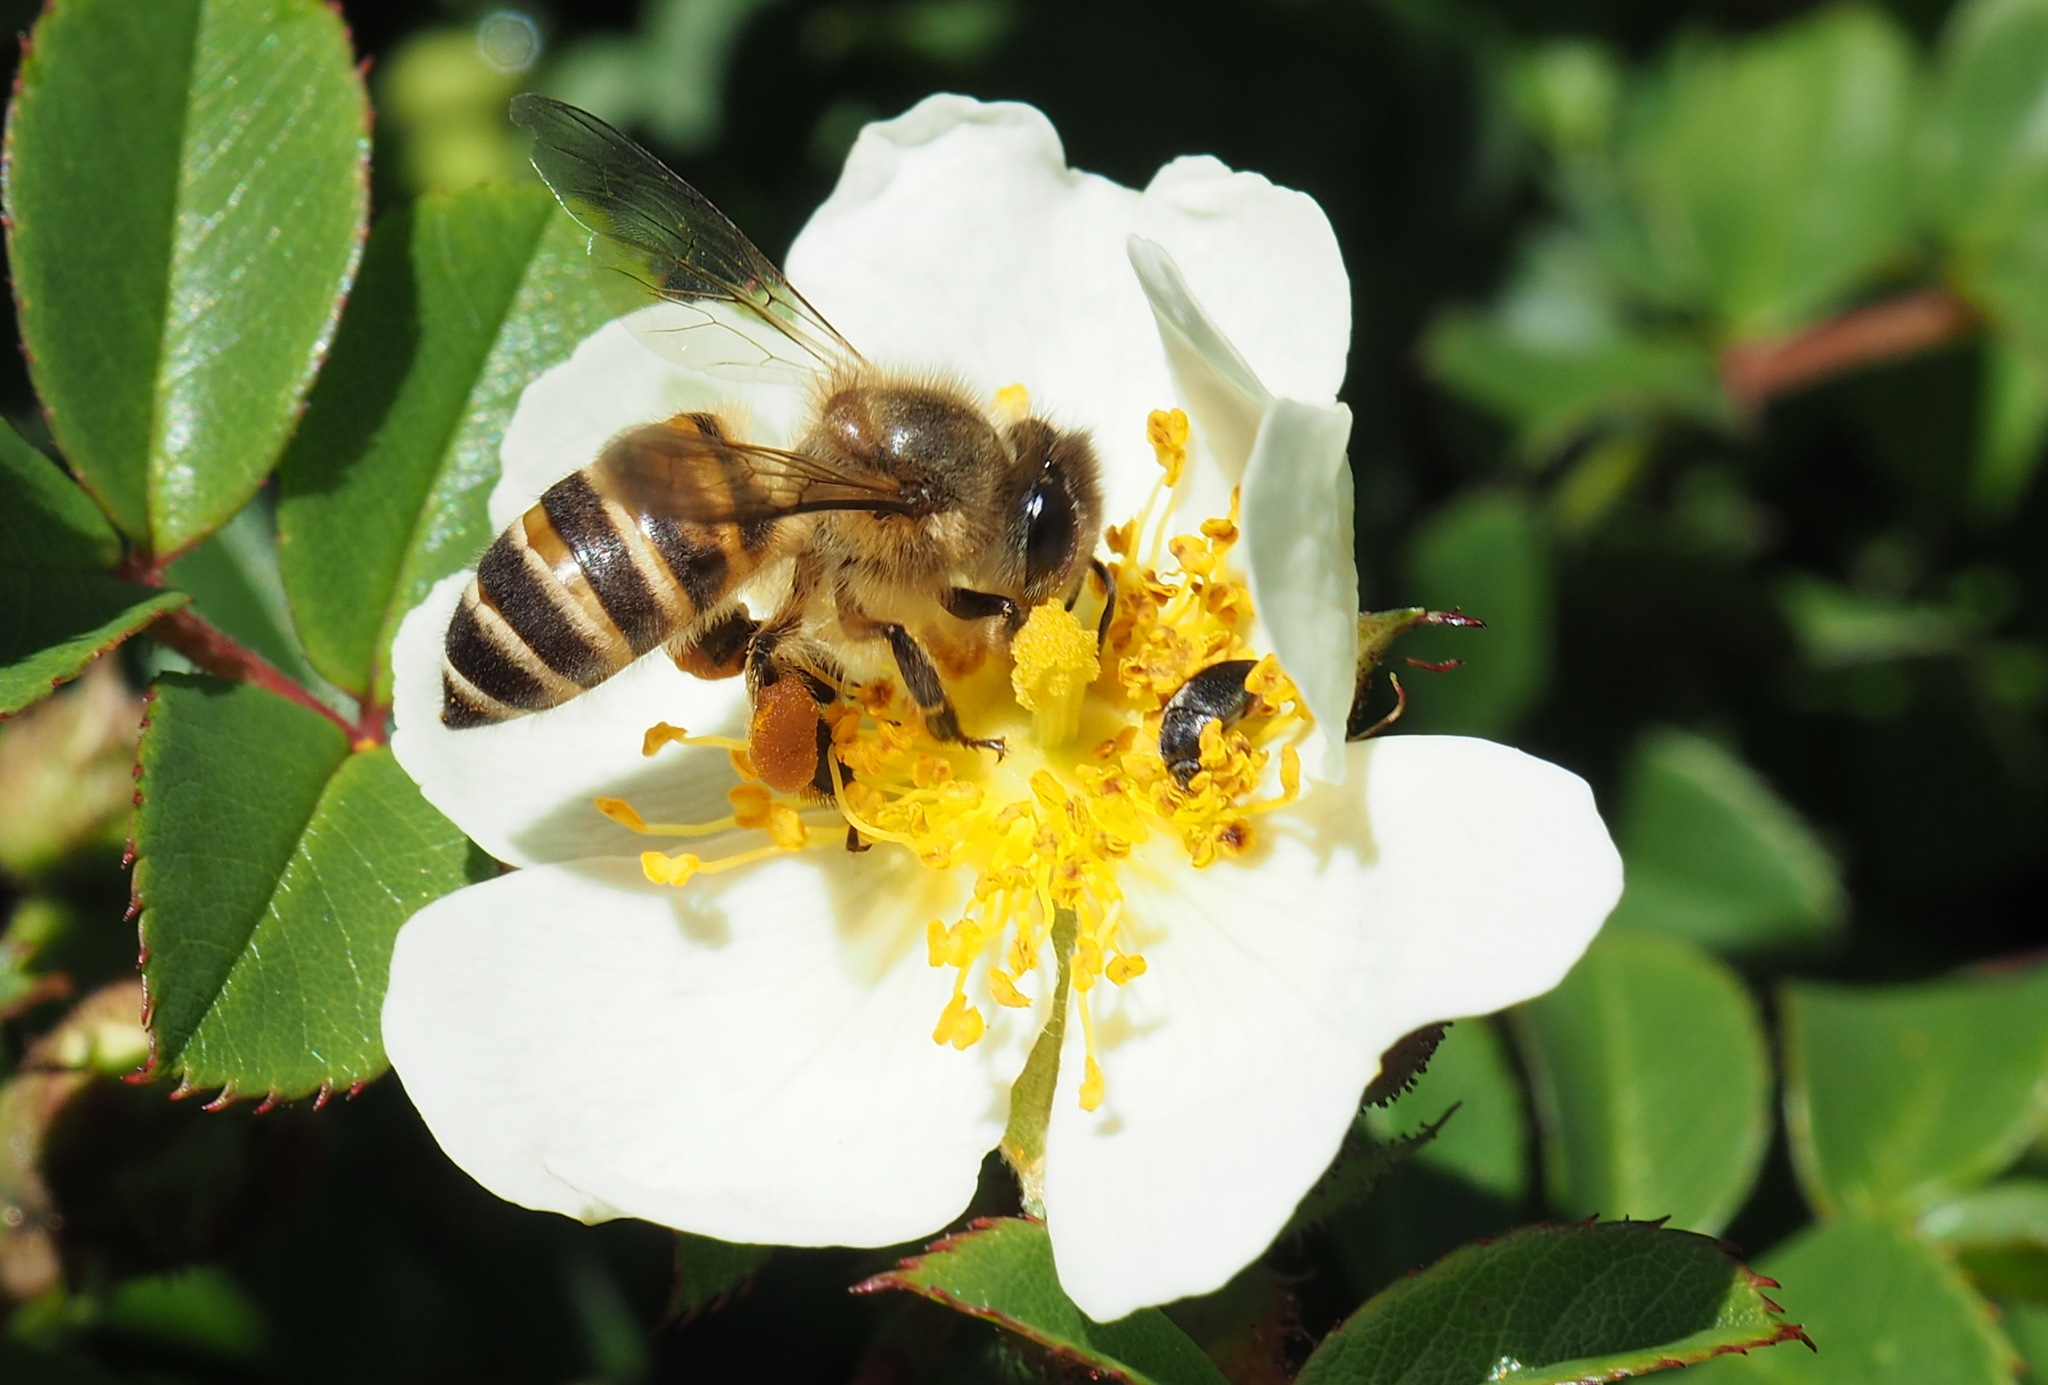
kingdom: Animalia
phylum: Arthropoda
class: Insecta
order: Hymenoptera
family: Apidae
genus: Apis
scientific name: Apis cerana
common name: Honey bee
